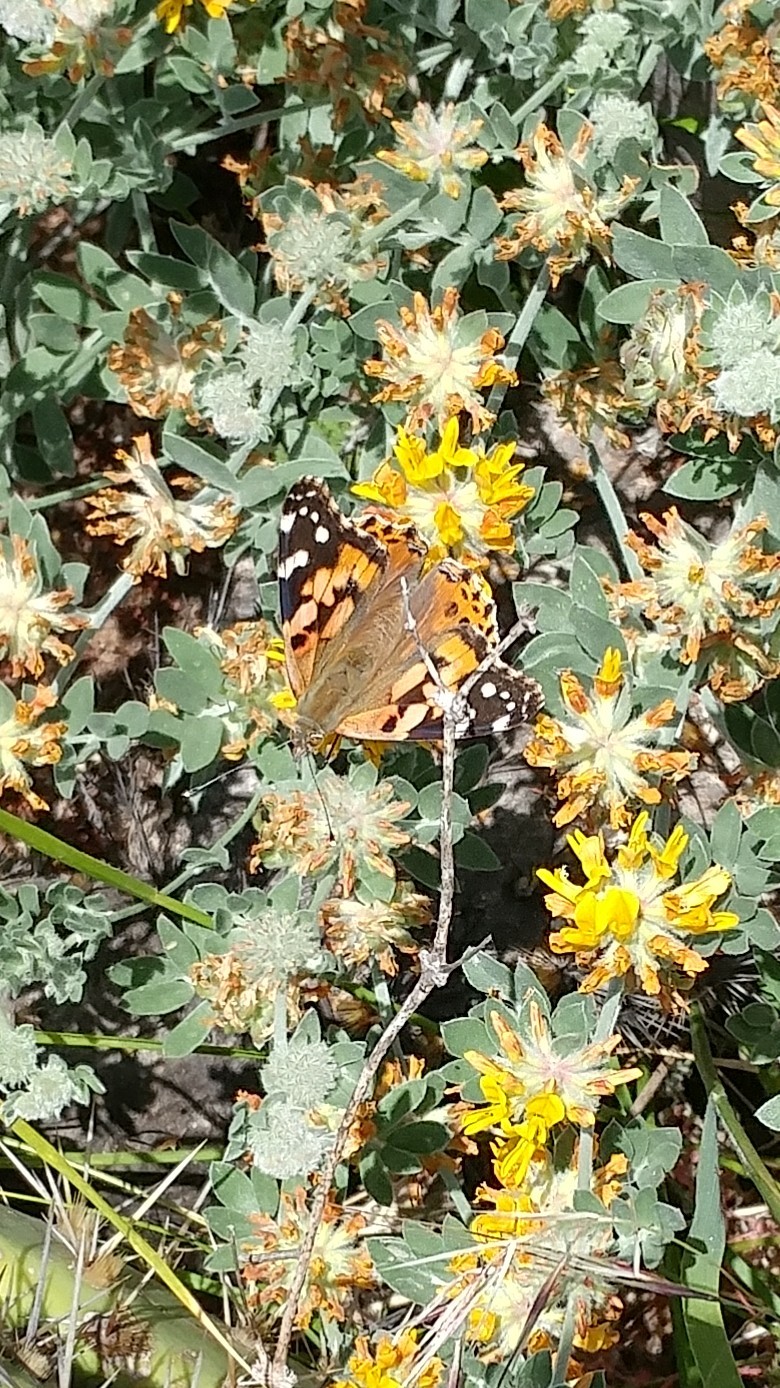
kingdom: Animalia
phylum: Arthropoda
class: Insecta
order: Lepidoptera
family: Nymphalidae
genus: Vanessa
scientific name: Vanessa cardui
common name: Painted lady
